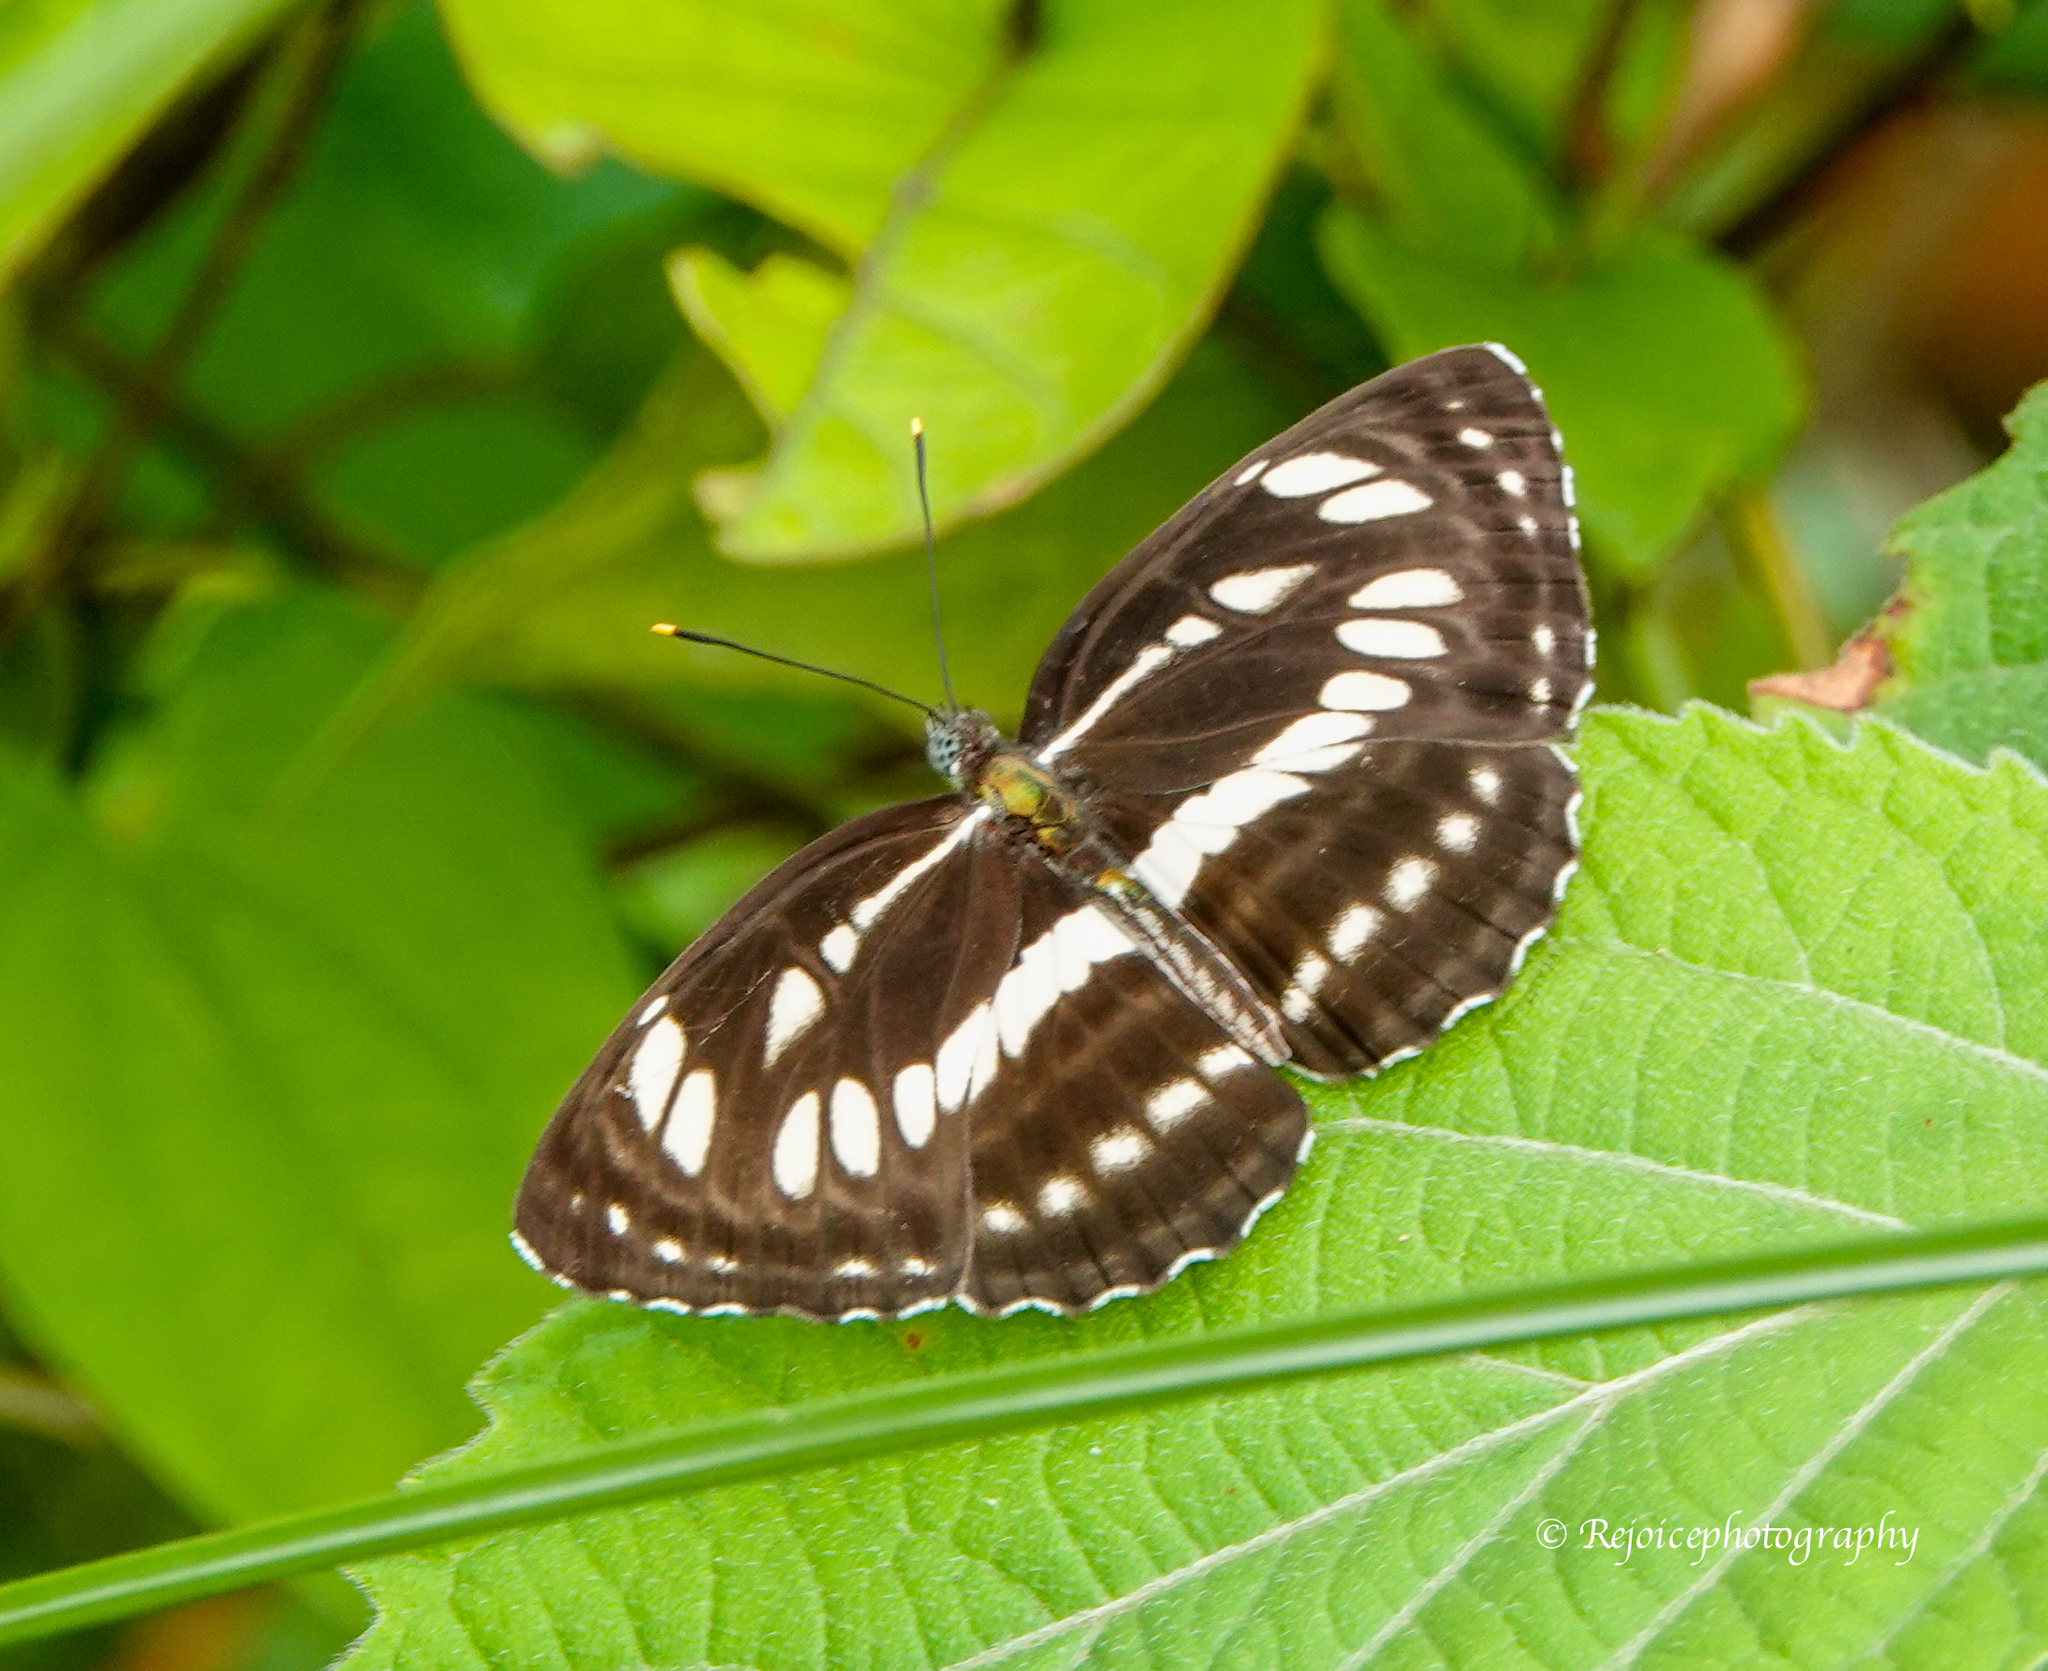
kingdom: Animalia
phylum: Arthropoda
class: Insecta
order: Lepidoptera
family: Nymphalidae
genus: Neptis
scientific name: Neptis hylas
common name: Common sailer
